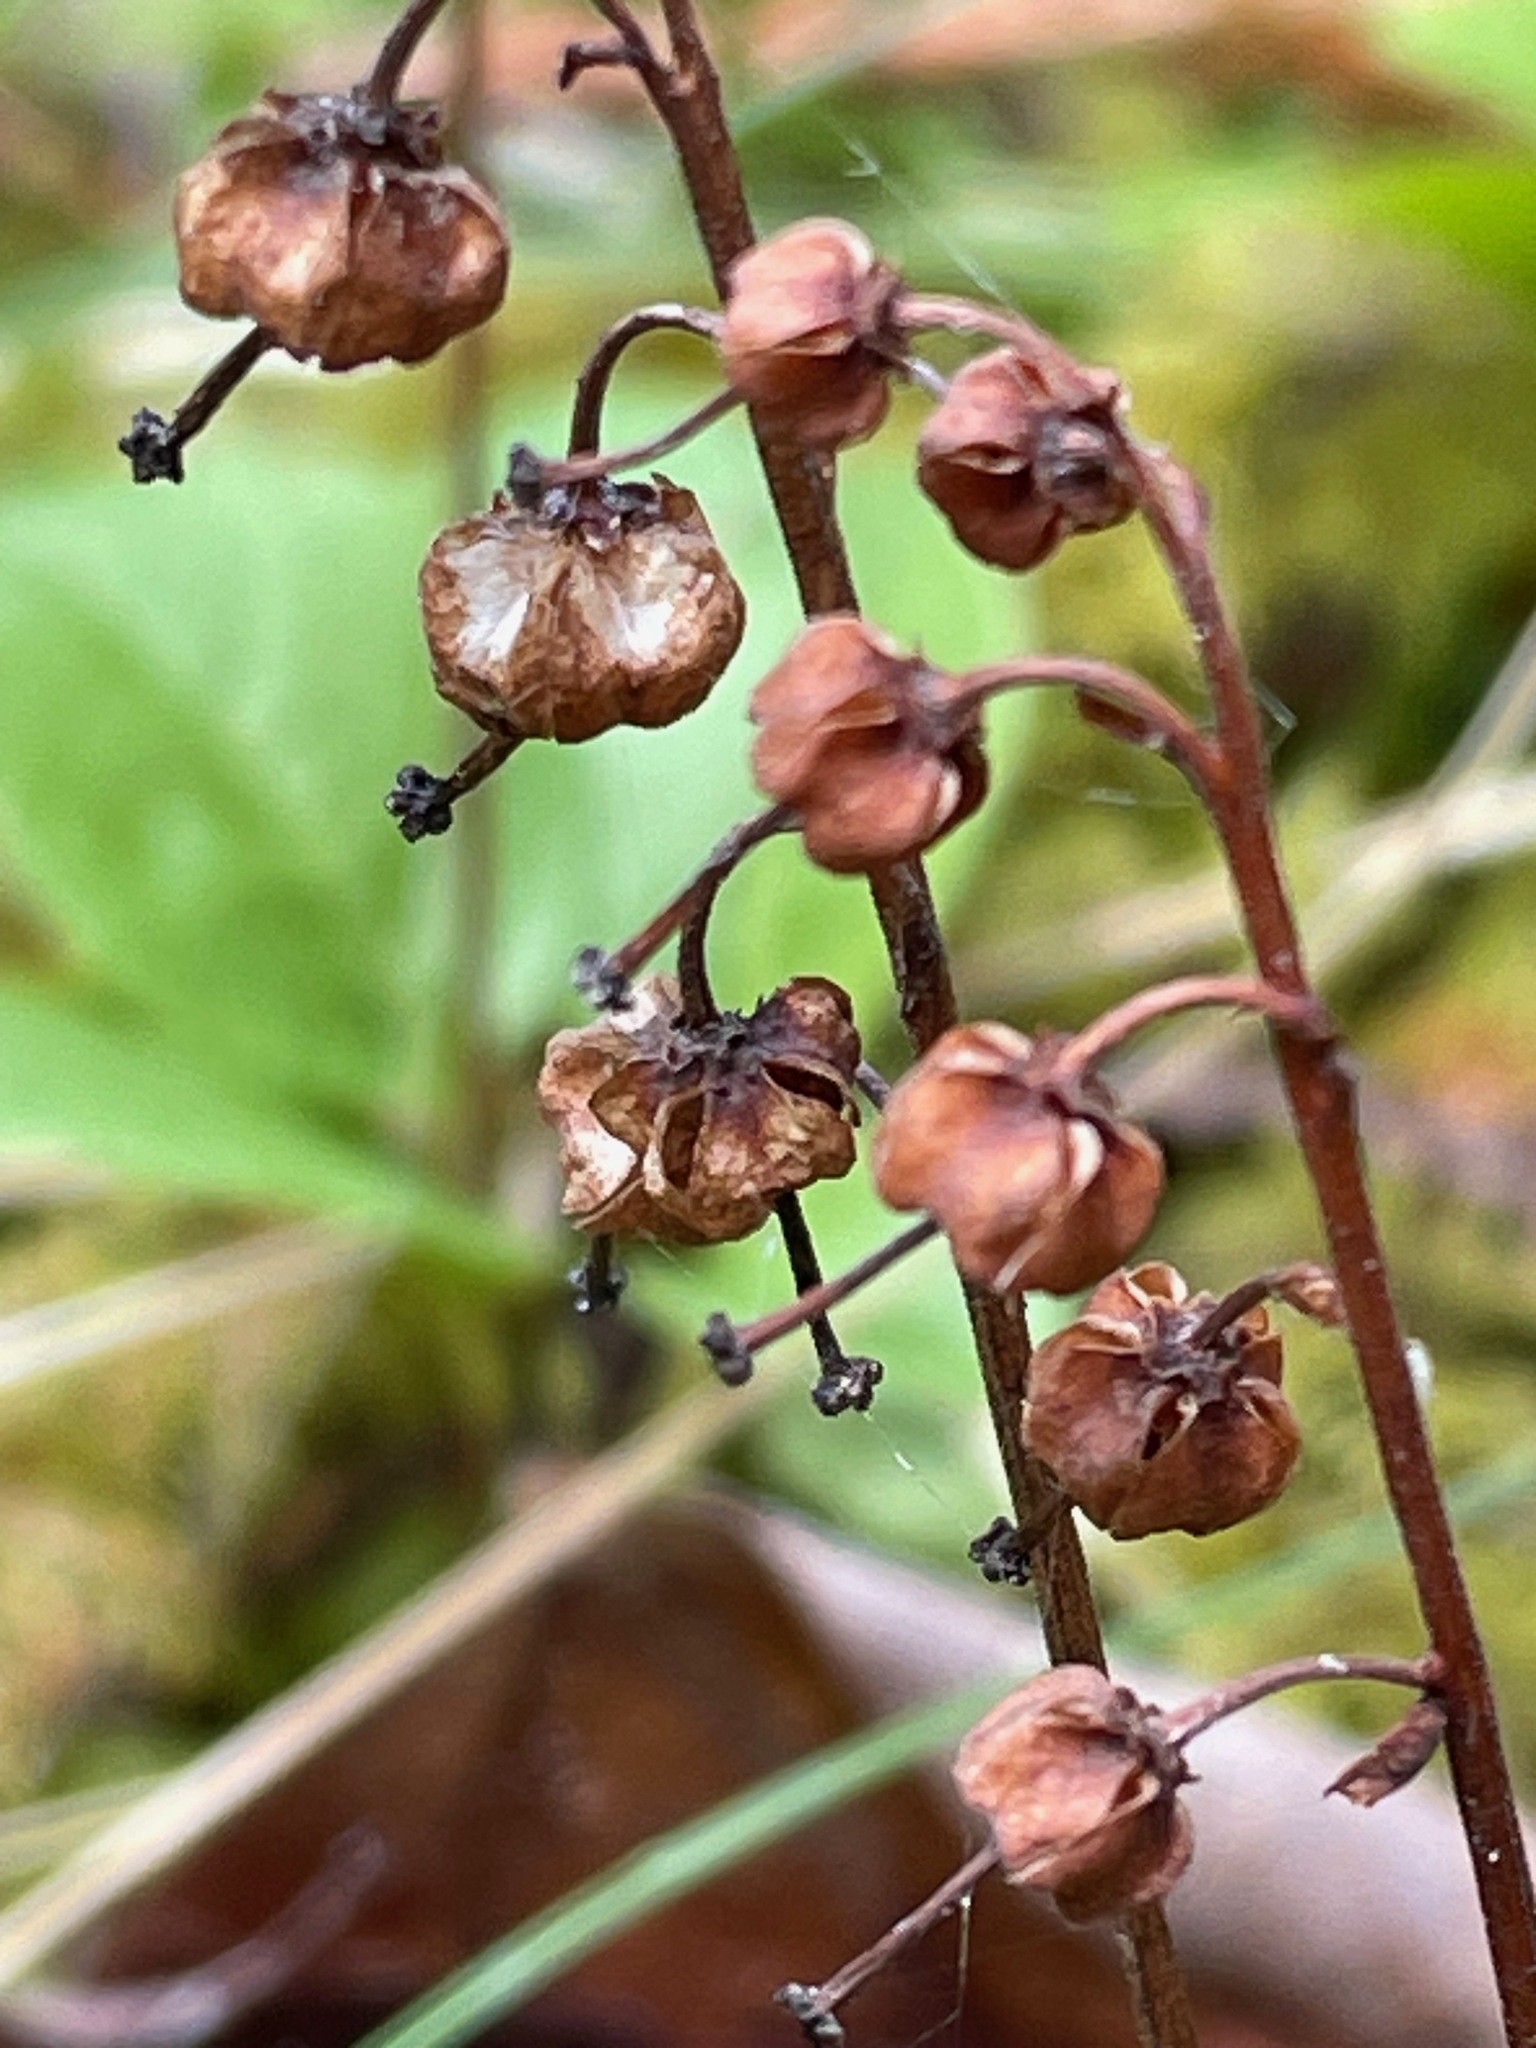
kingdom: Plantae
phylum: Tracheophyta
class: Magnoliopsida
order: Ericales
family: Ericaceae
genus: Orthilia
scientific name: Orthilia secunda
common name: One-sided orthilia
